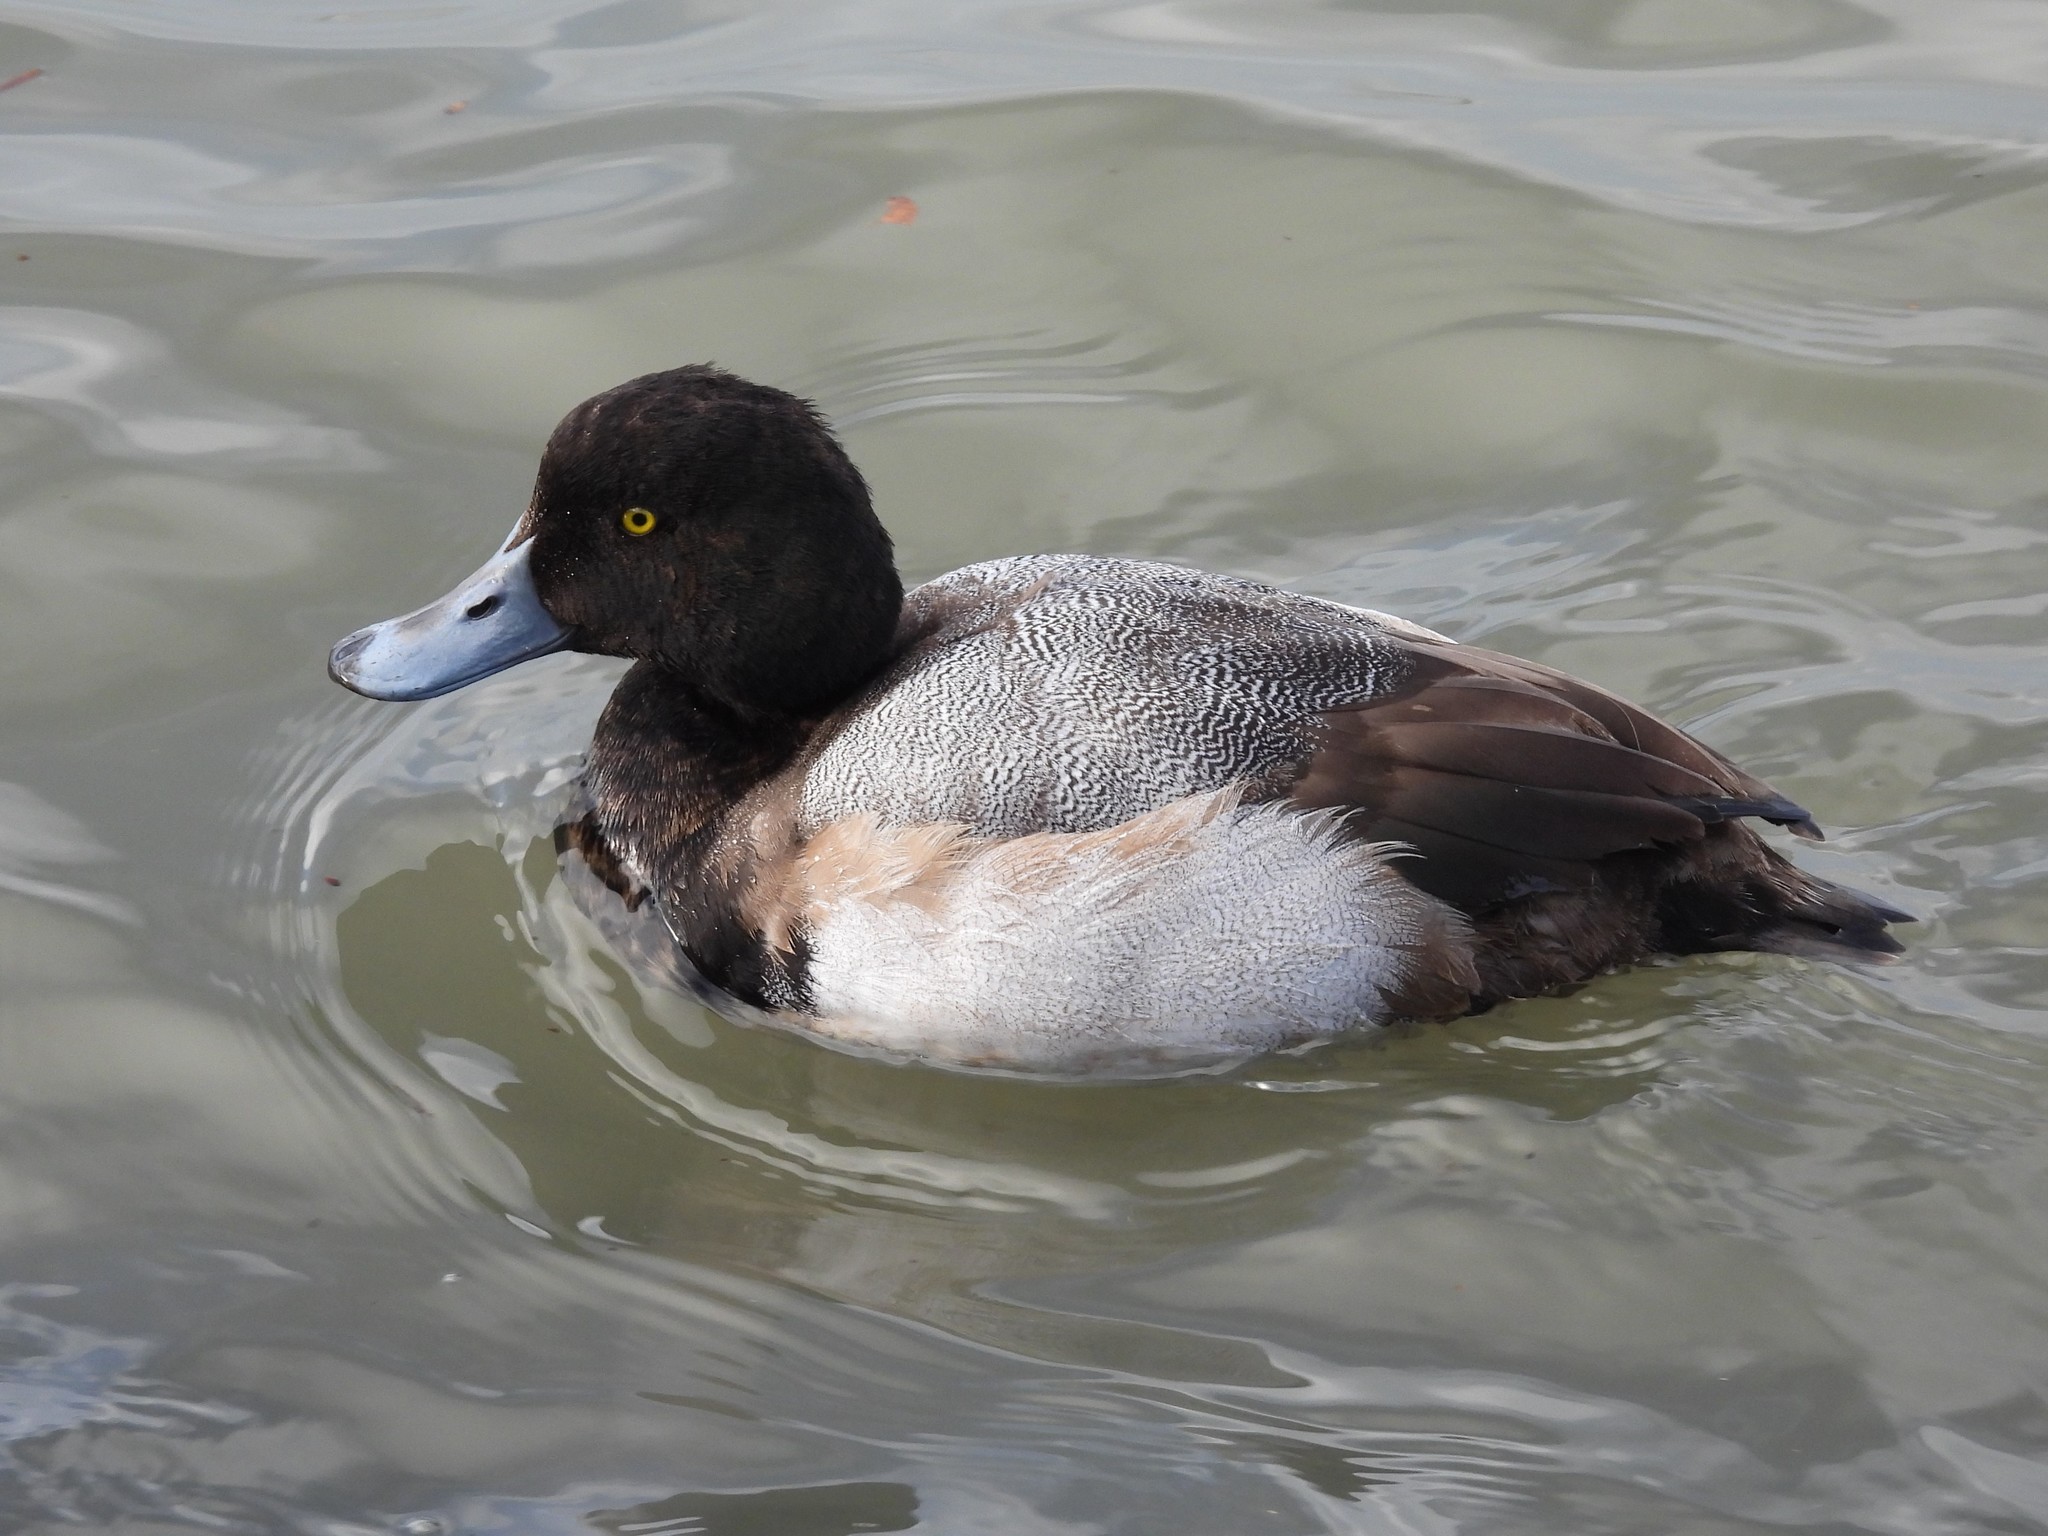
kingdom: Animalia
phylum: Chordata
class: Aves
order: Anseriformes
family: Anatidae
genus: Aythya
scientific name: Aythya marila
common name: Greater scaup
